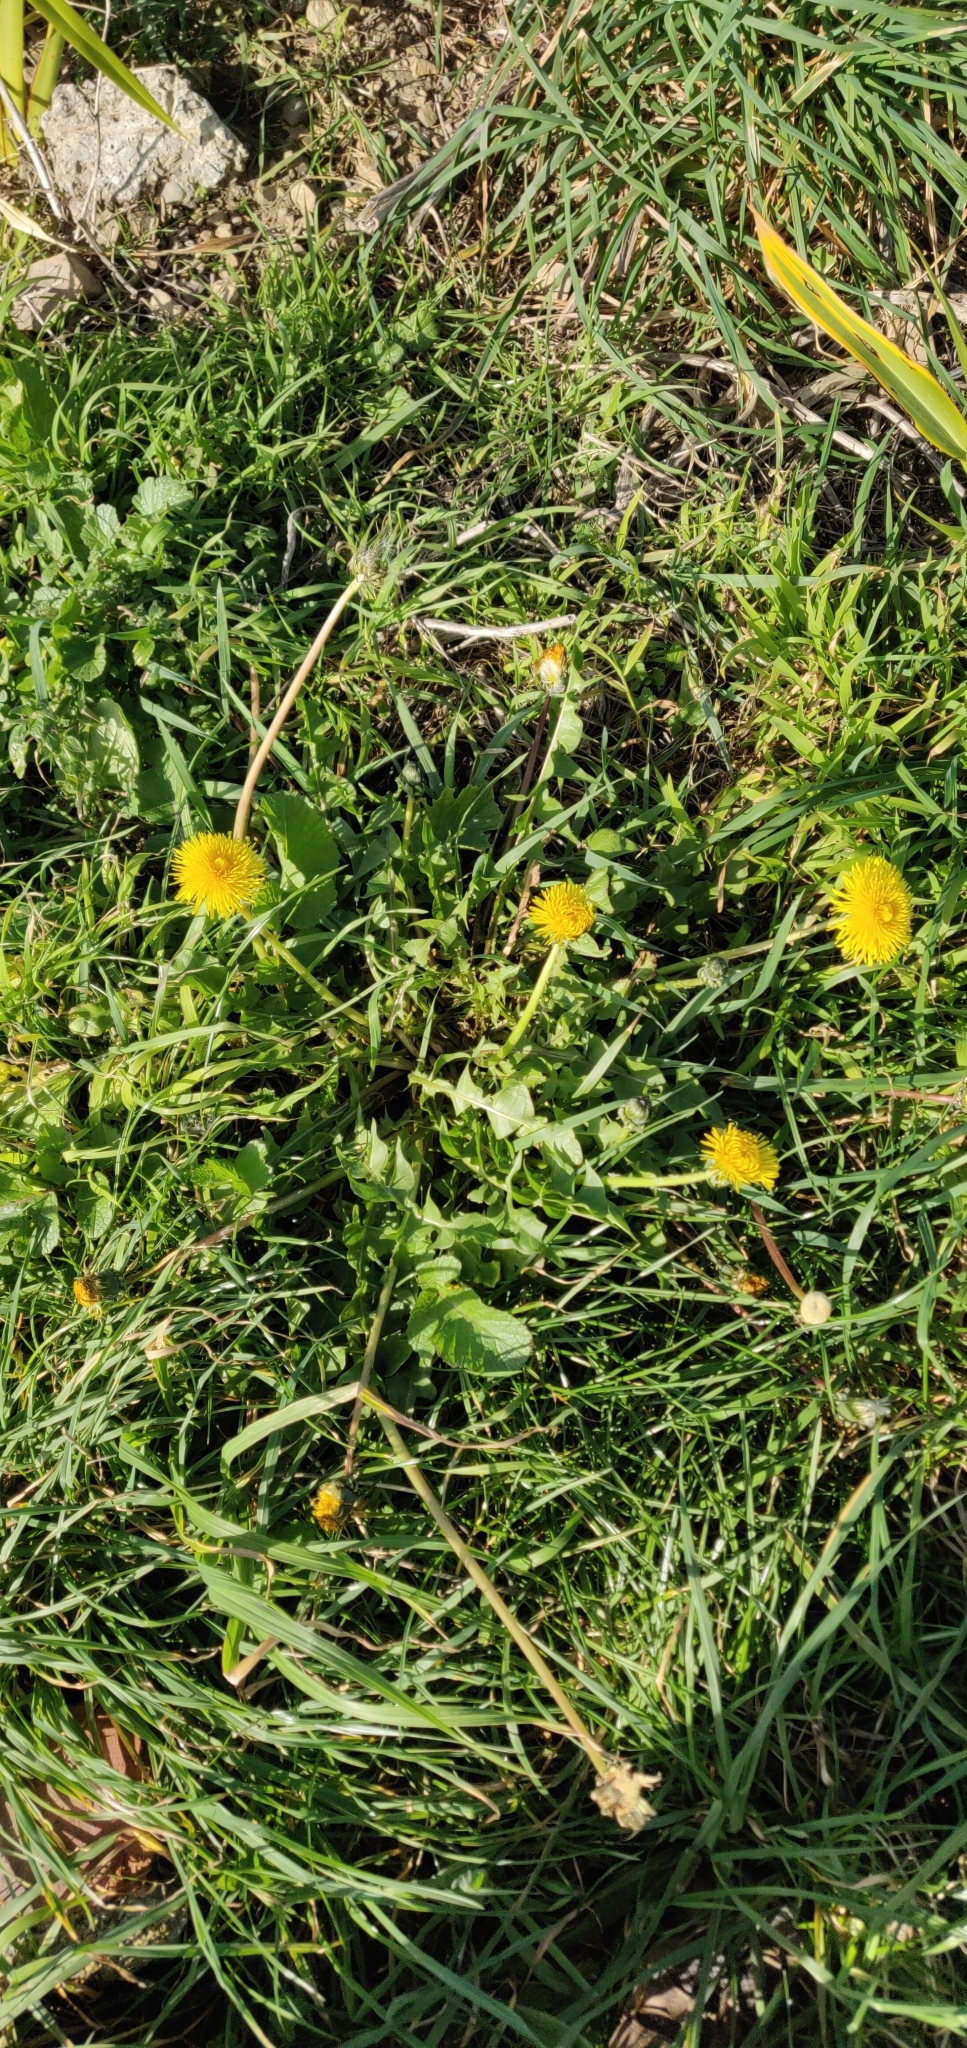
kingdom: Plantae
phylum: Tracheophyta
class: Magnoliopsida
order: Asterales
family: Asteraceae
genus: Taraxacum
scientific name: Taraxacum officinale
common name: Common dandelion
